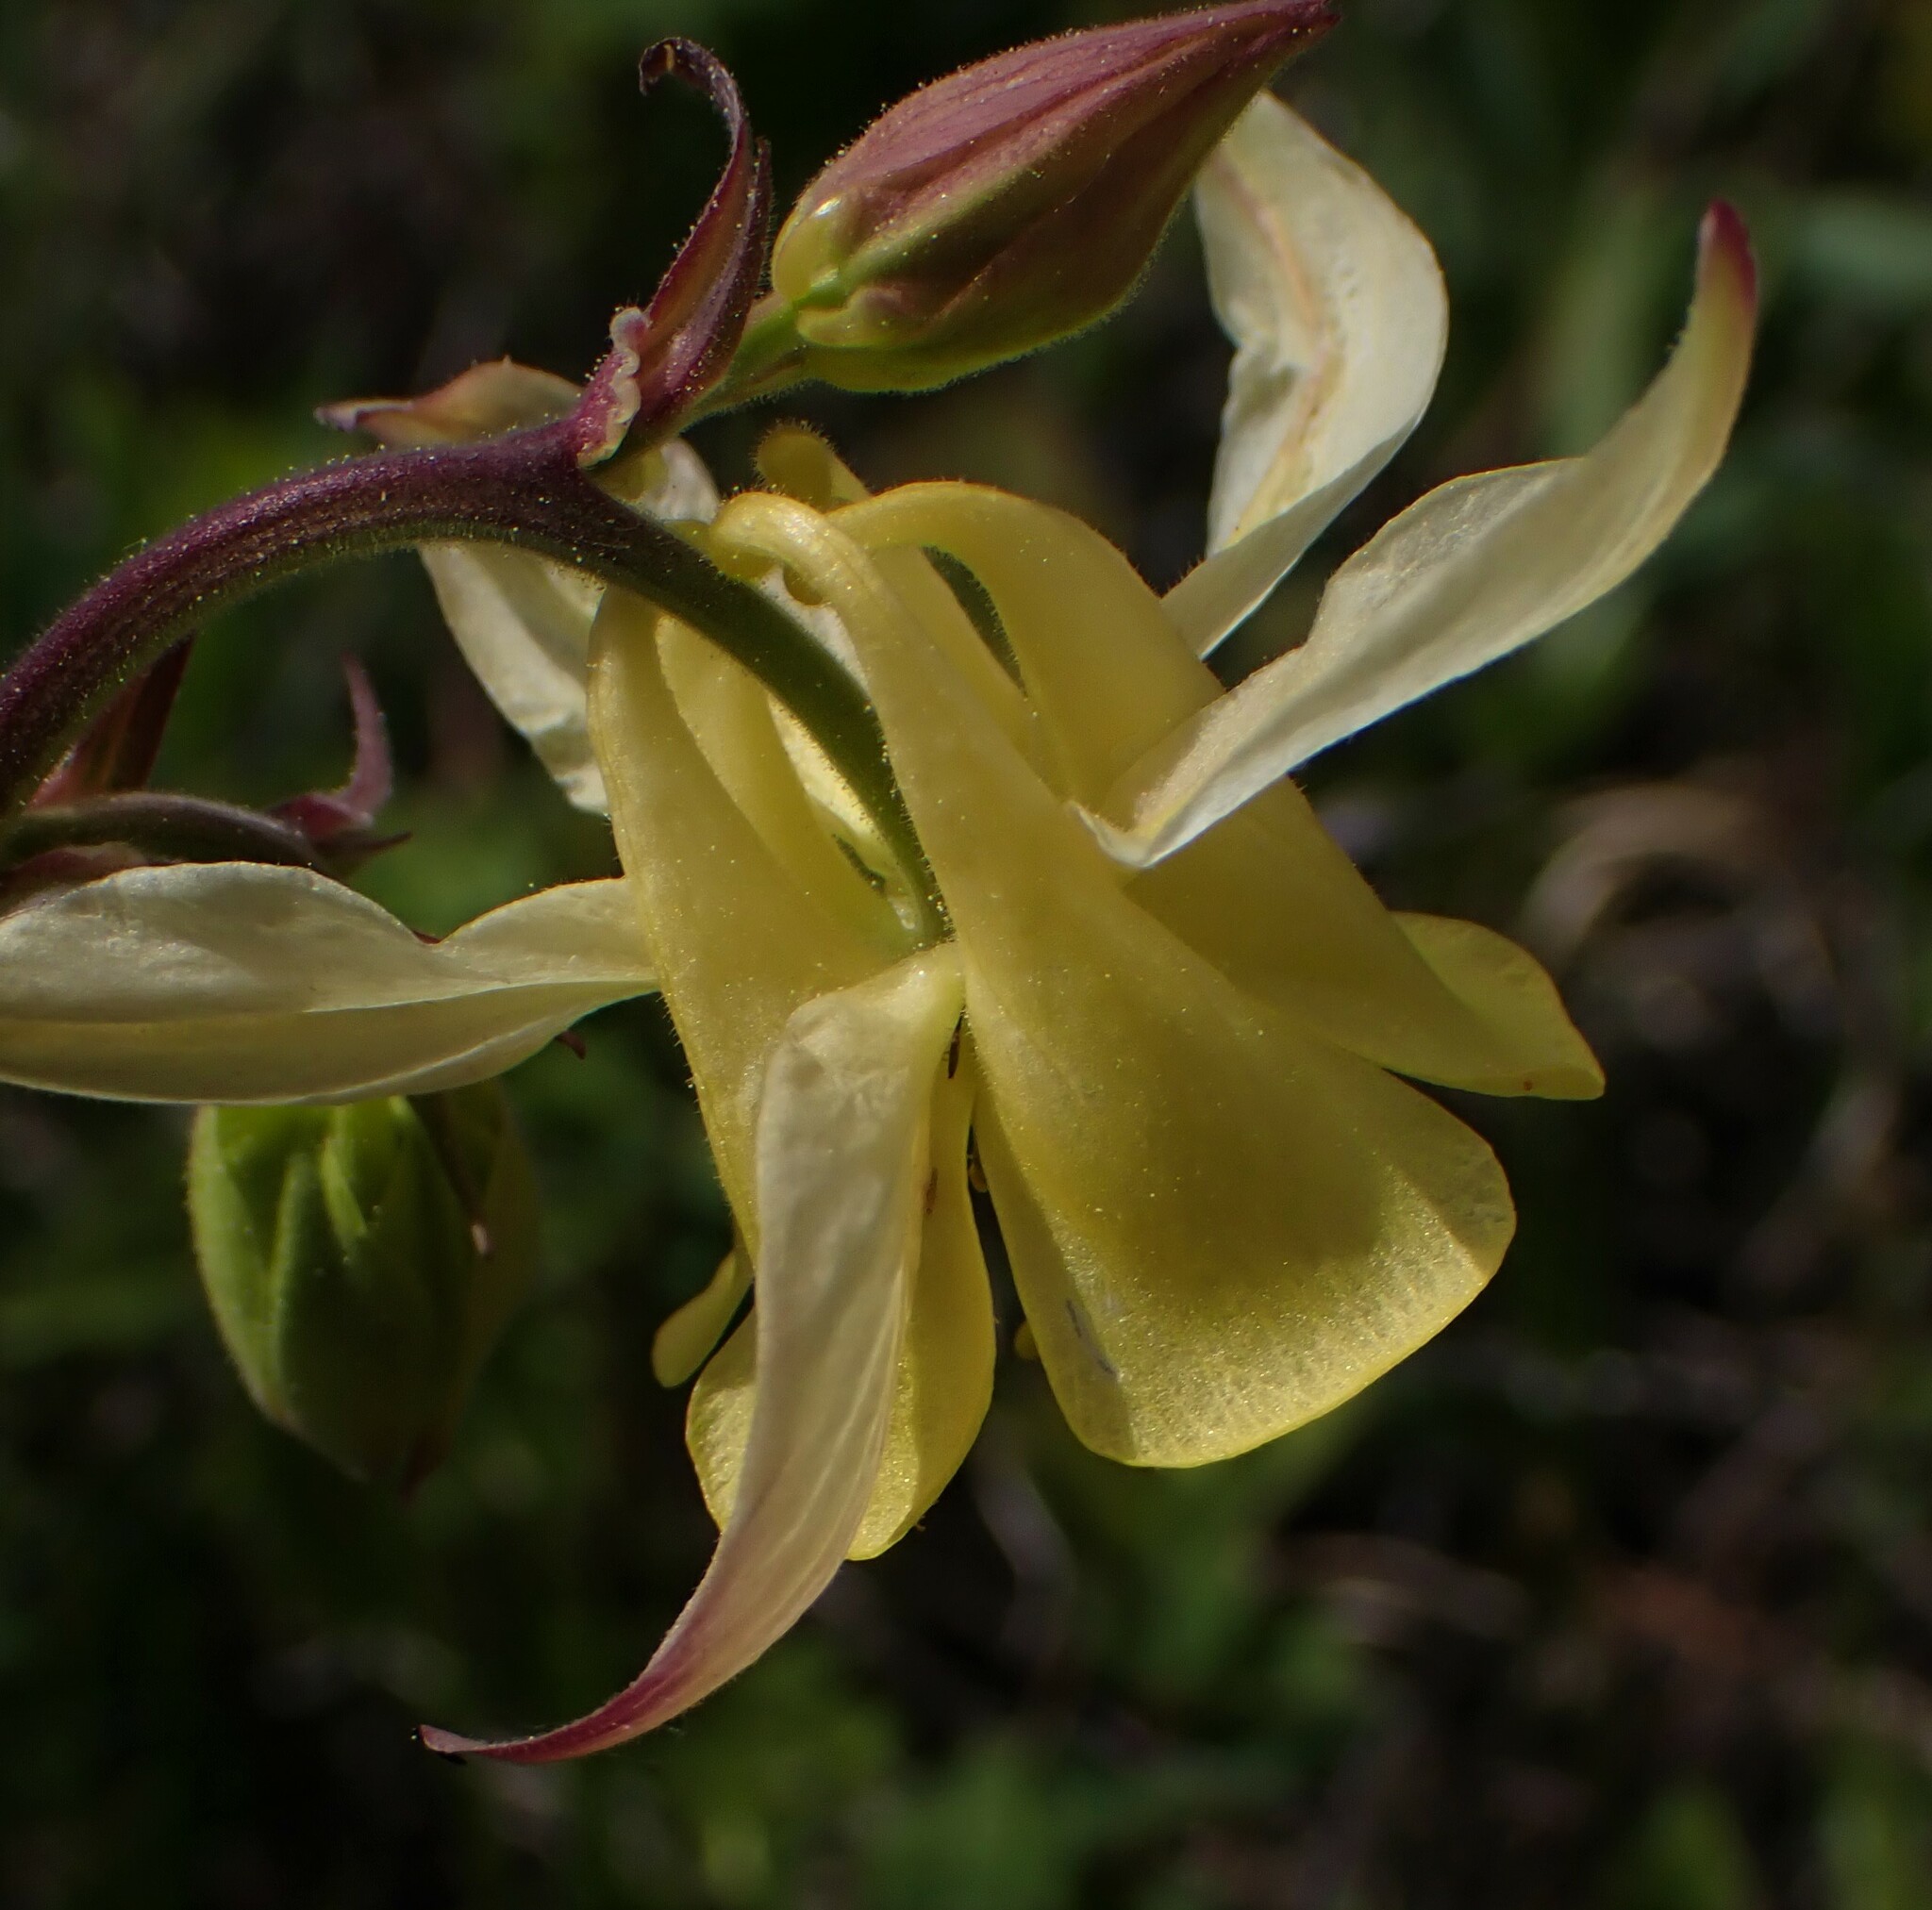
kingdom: Plantae
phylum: Tracheophyta
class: Magnoliopsida
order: Ranunculales
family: Ranunculaceae
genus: Aquilegia
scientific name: Aquilegia flavescens
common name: Yellow columbine
